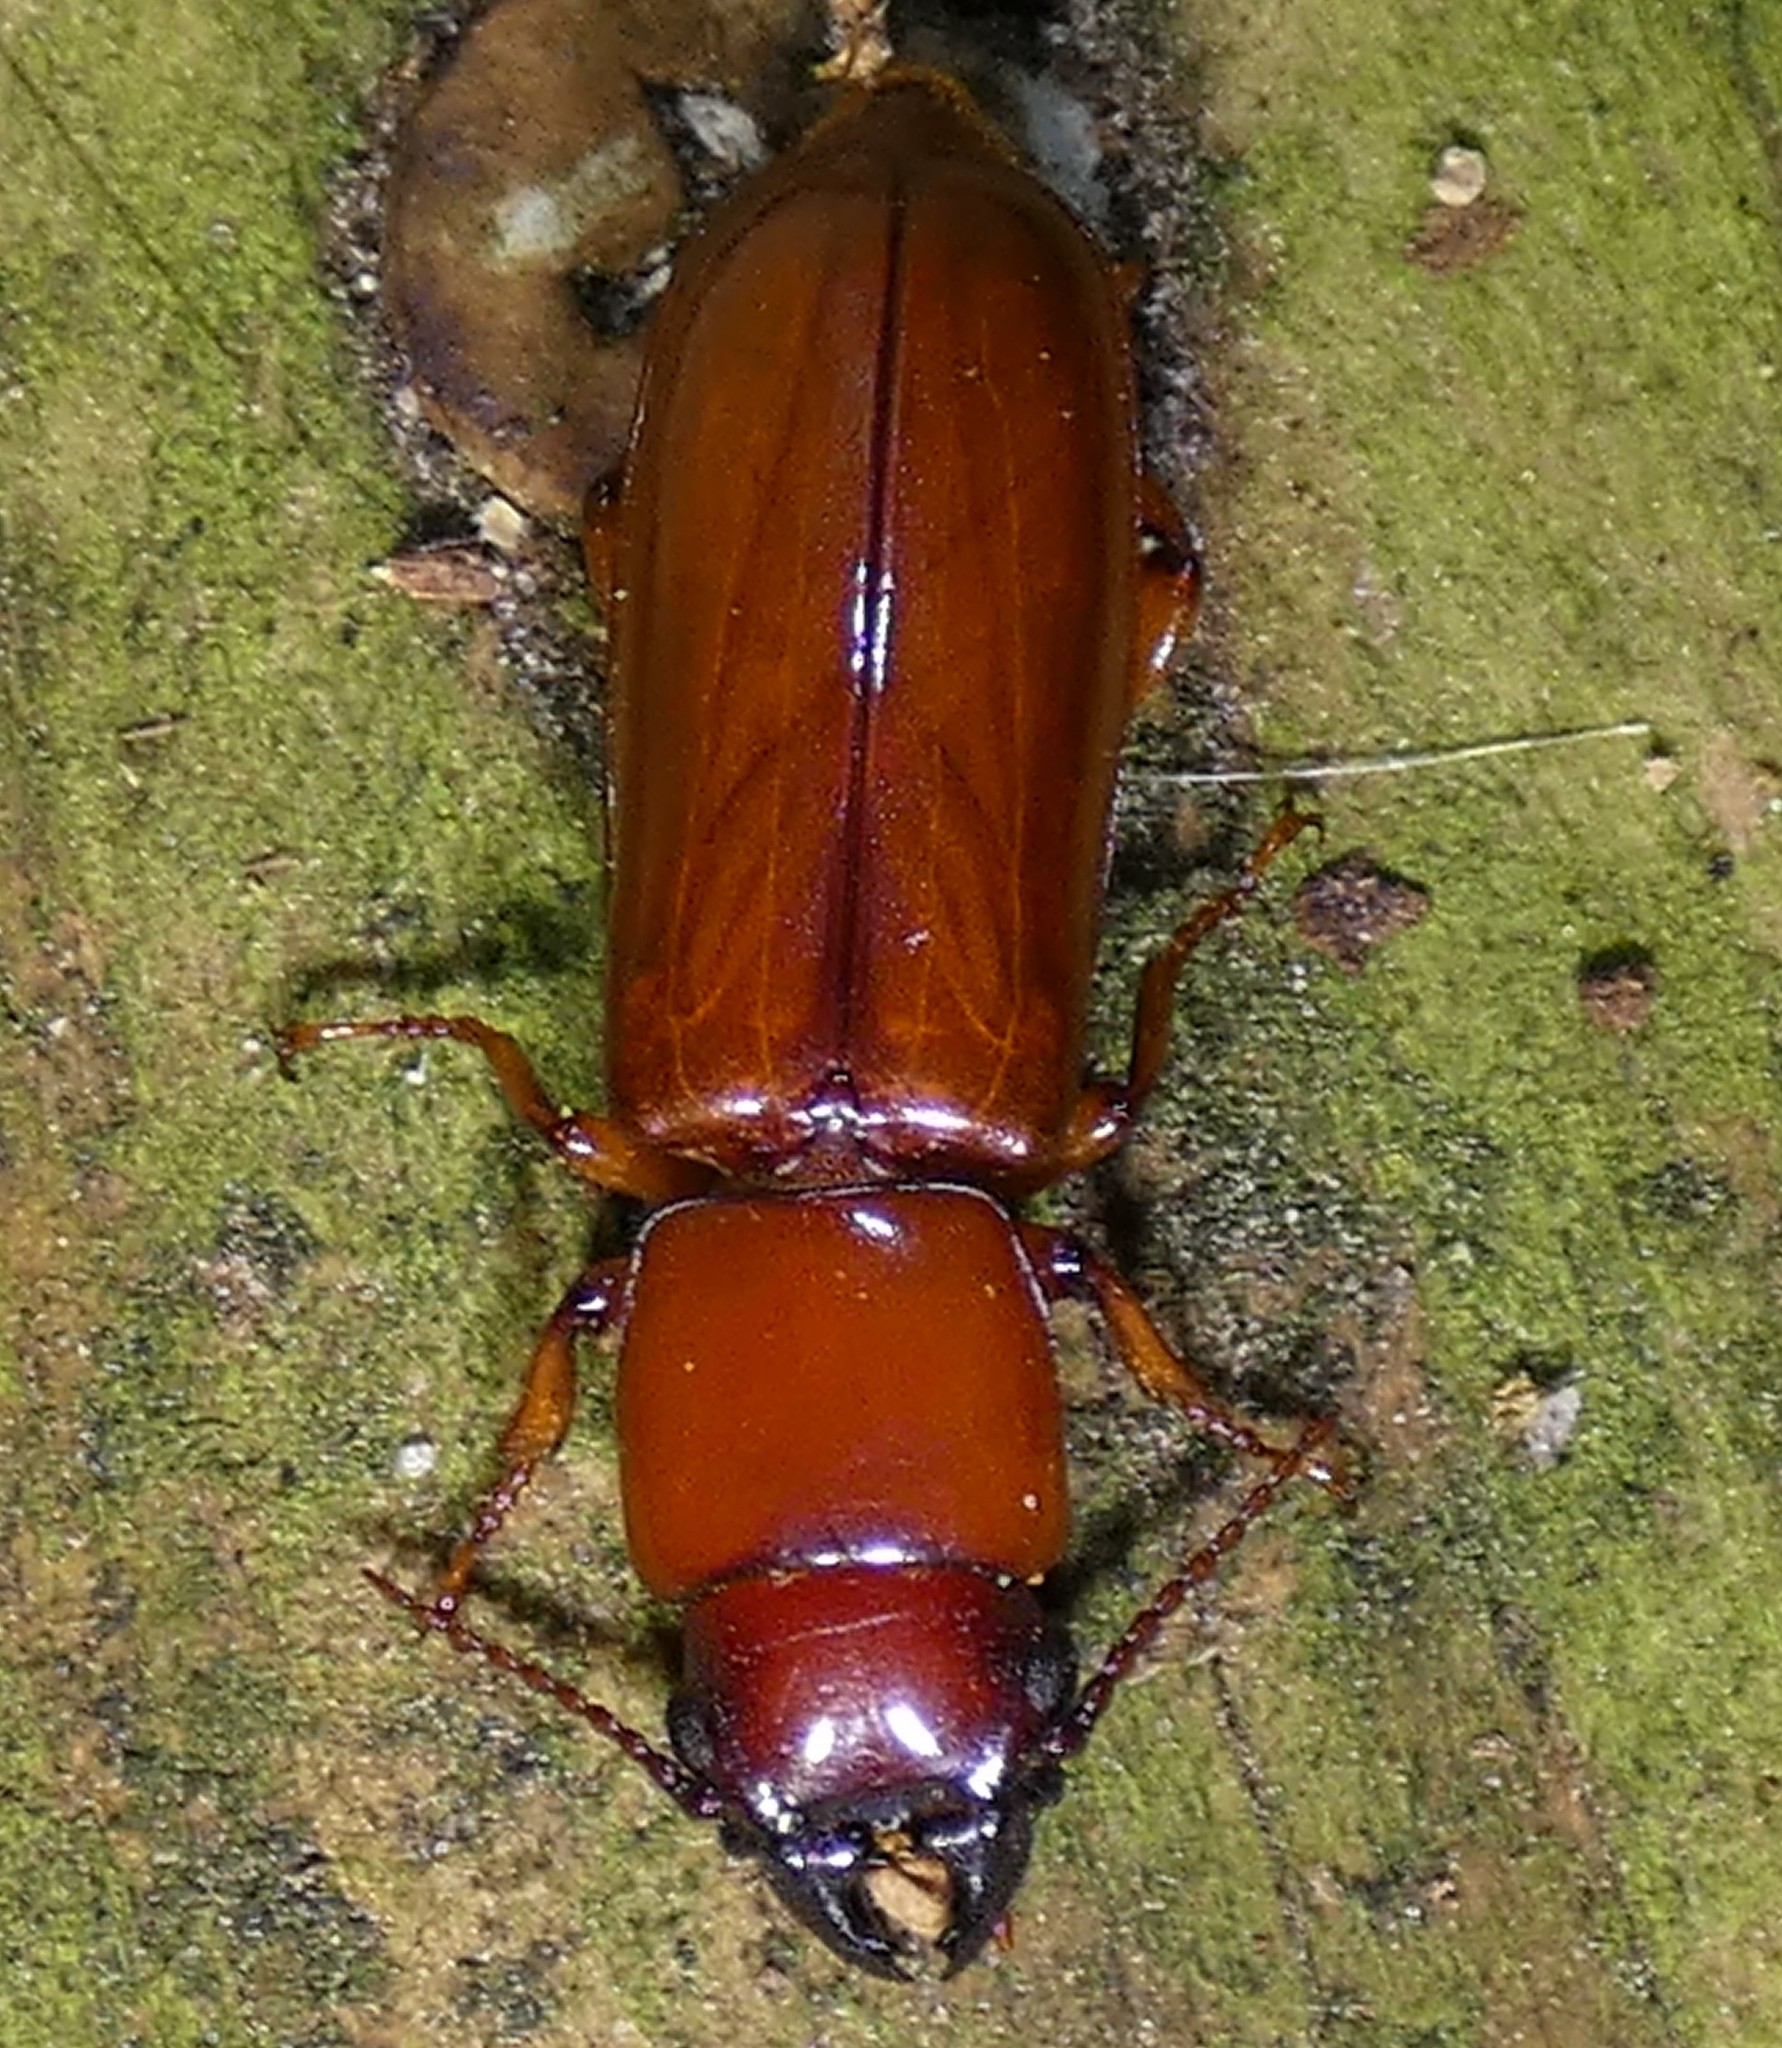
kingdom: Animalia
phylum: Arthropoda
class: Insecta
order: Coleoptera
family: Cerambycidae
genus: Parandra
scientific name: Parandra polita
